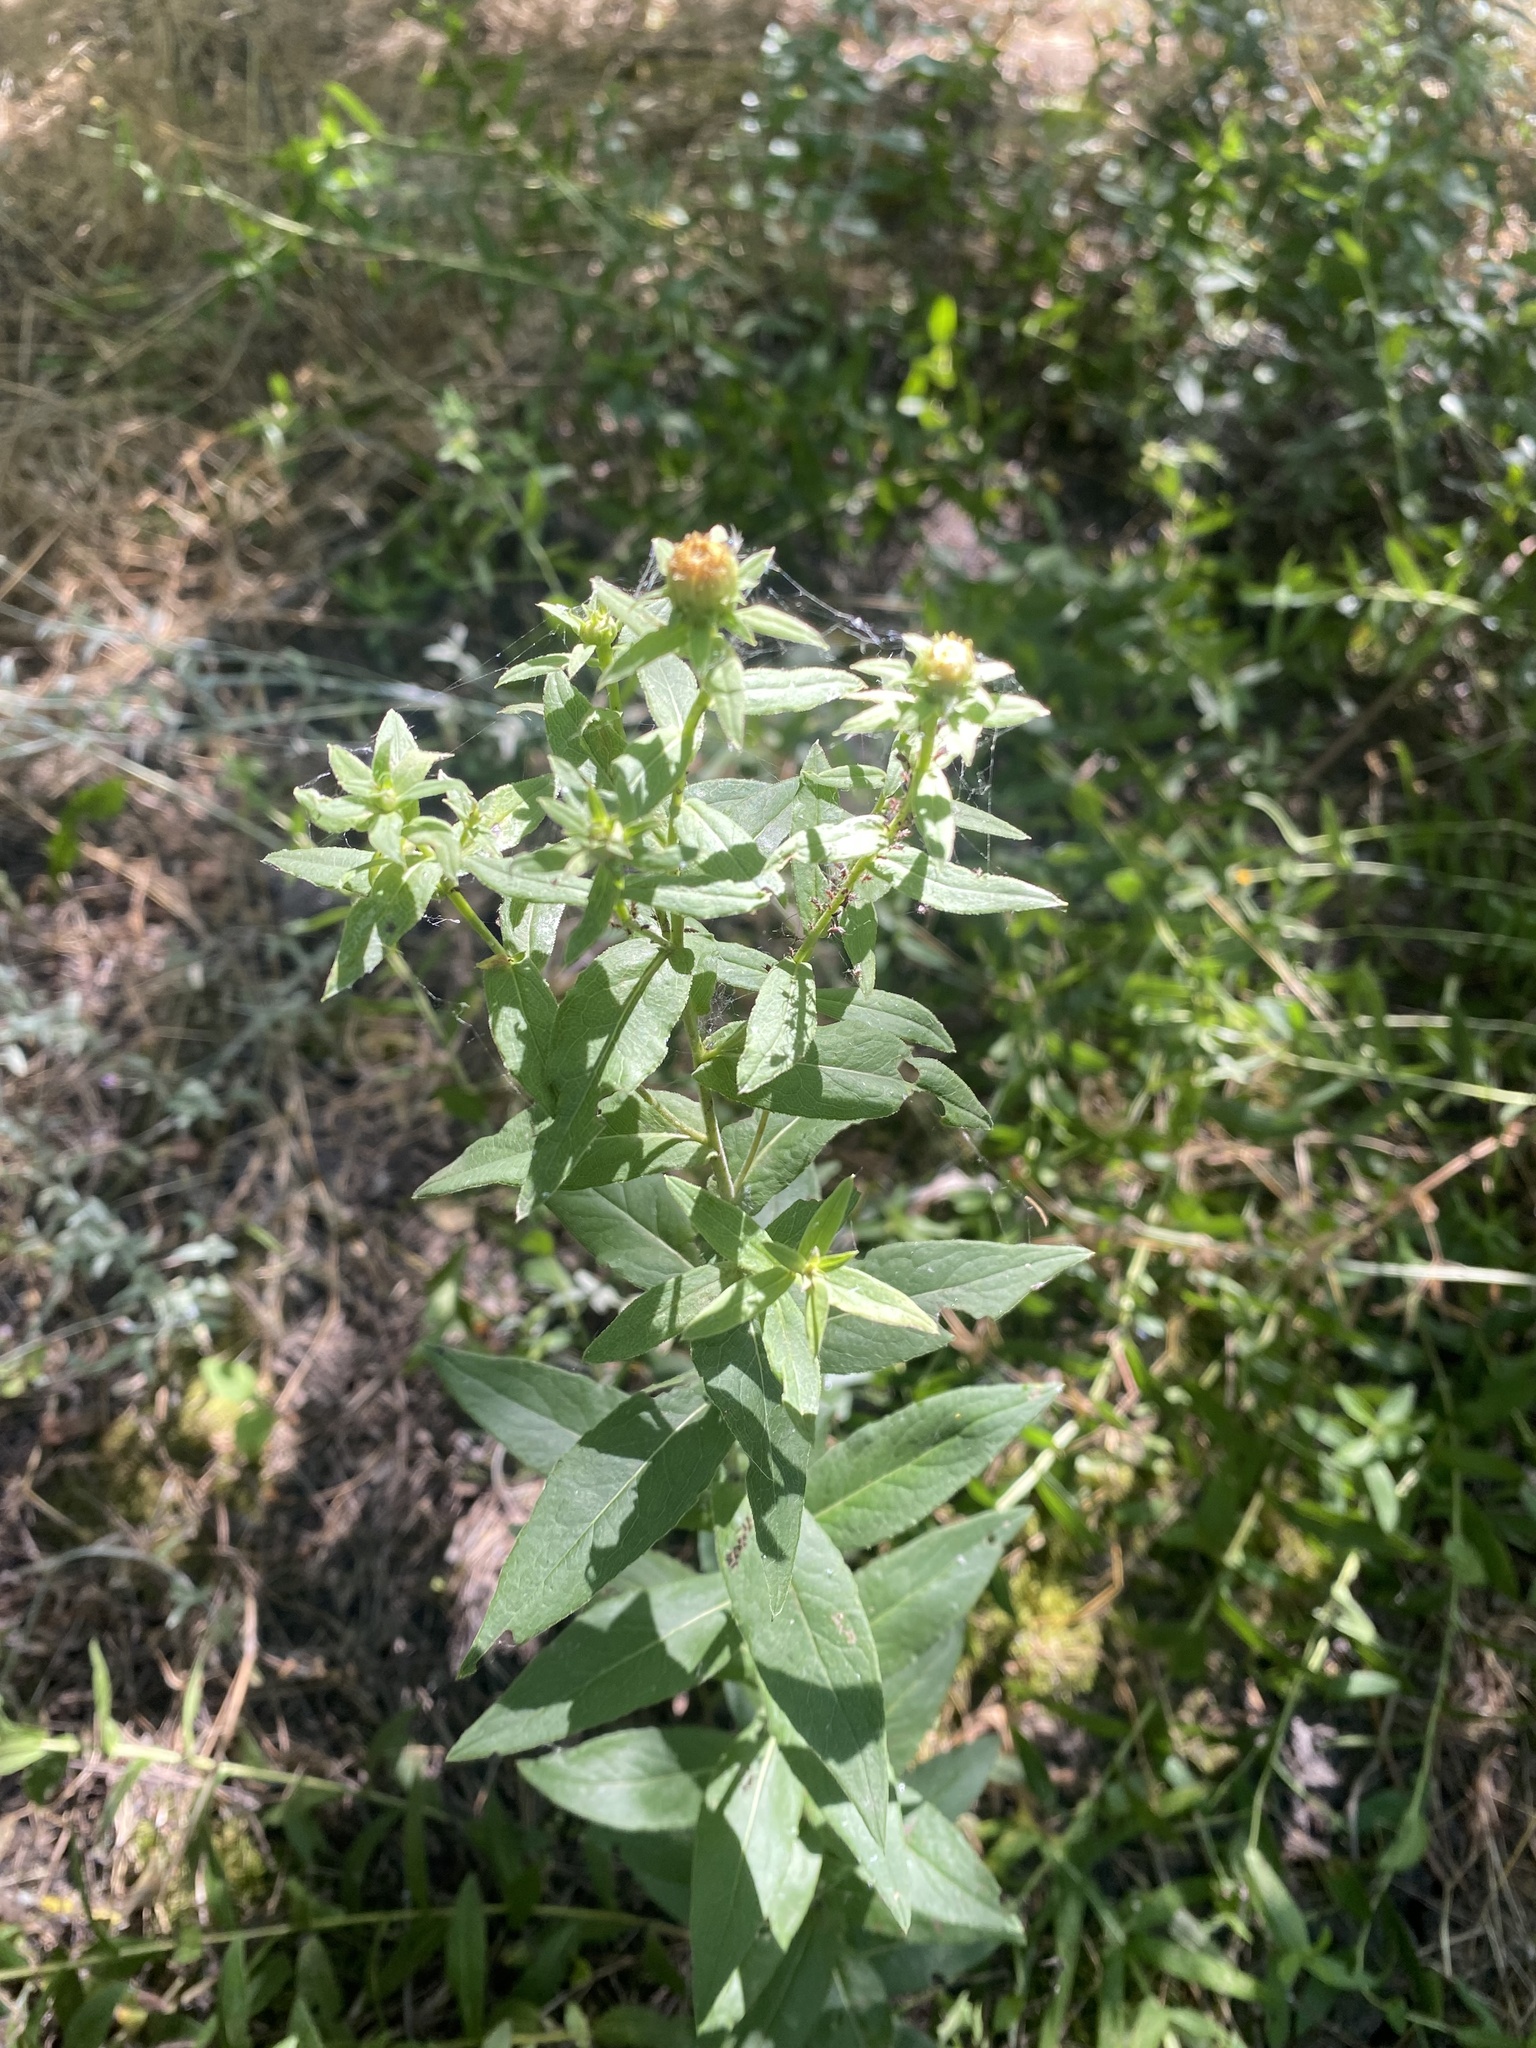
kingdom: Plantae
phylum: Tracheophyta
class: Magnoliopsida
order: Asterales
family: Asteraceae
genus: Pentanema
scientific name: Pentanema asperum
